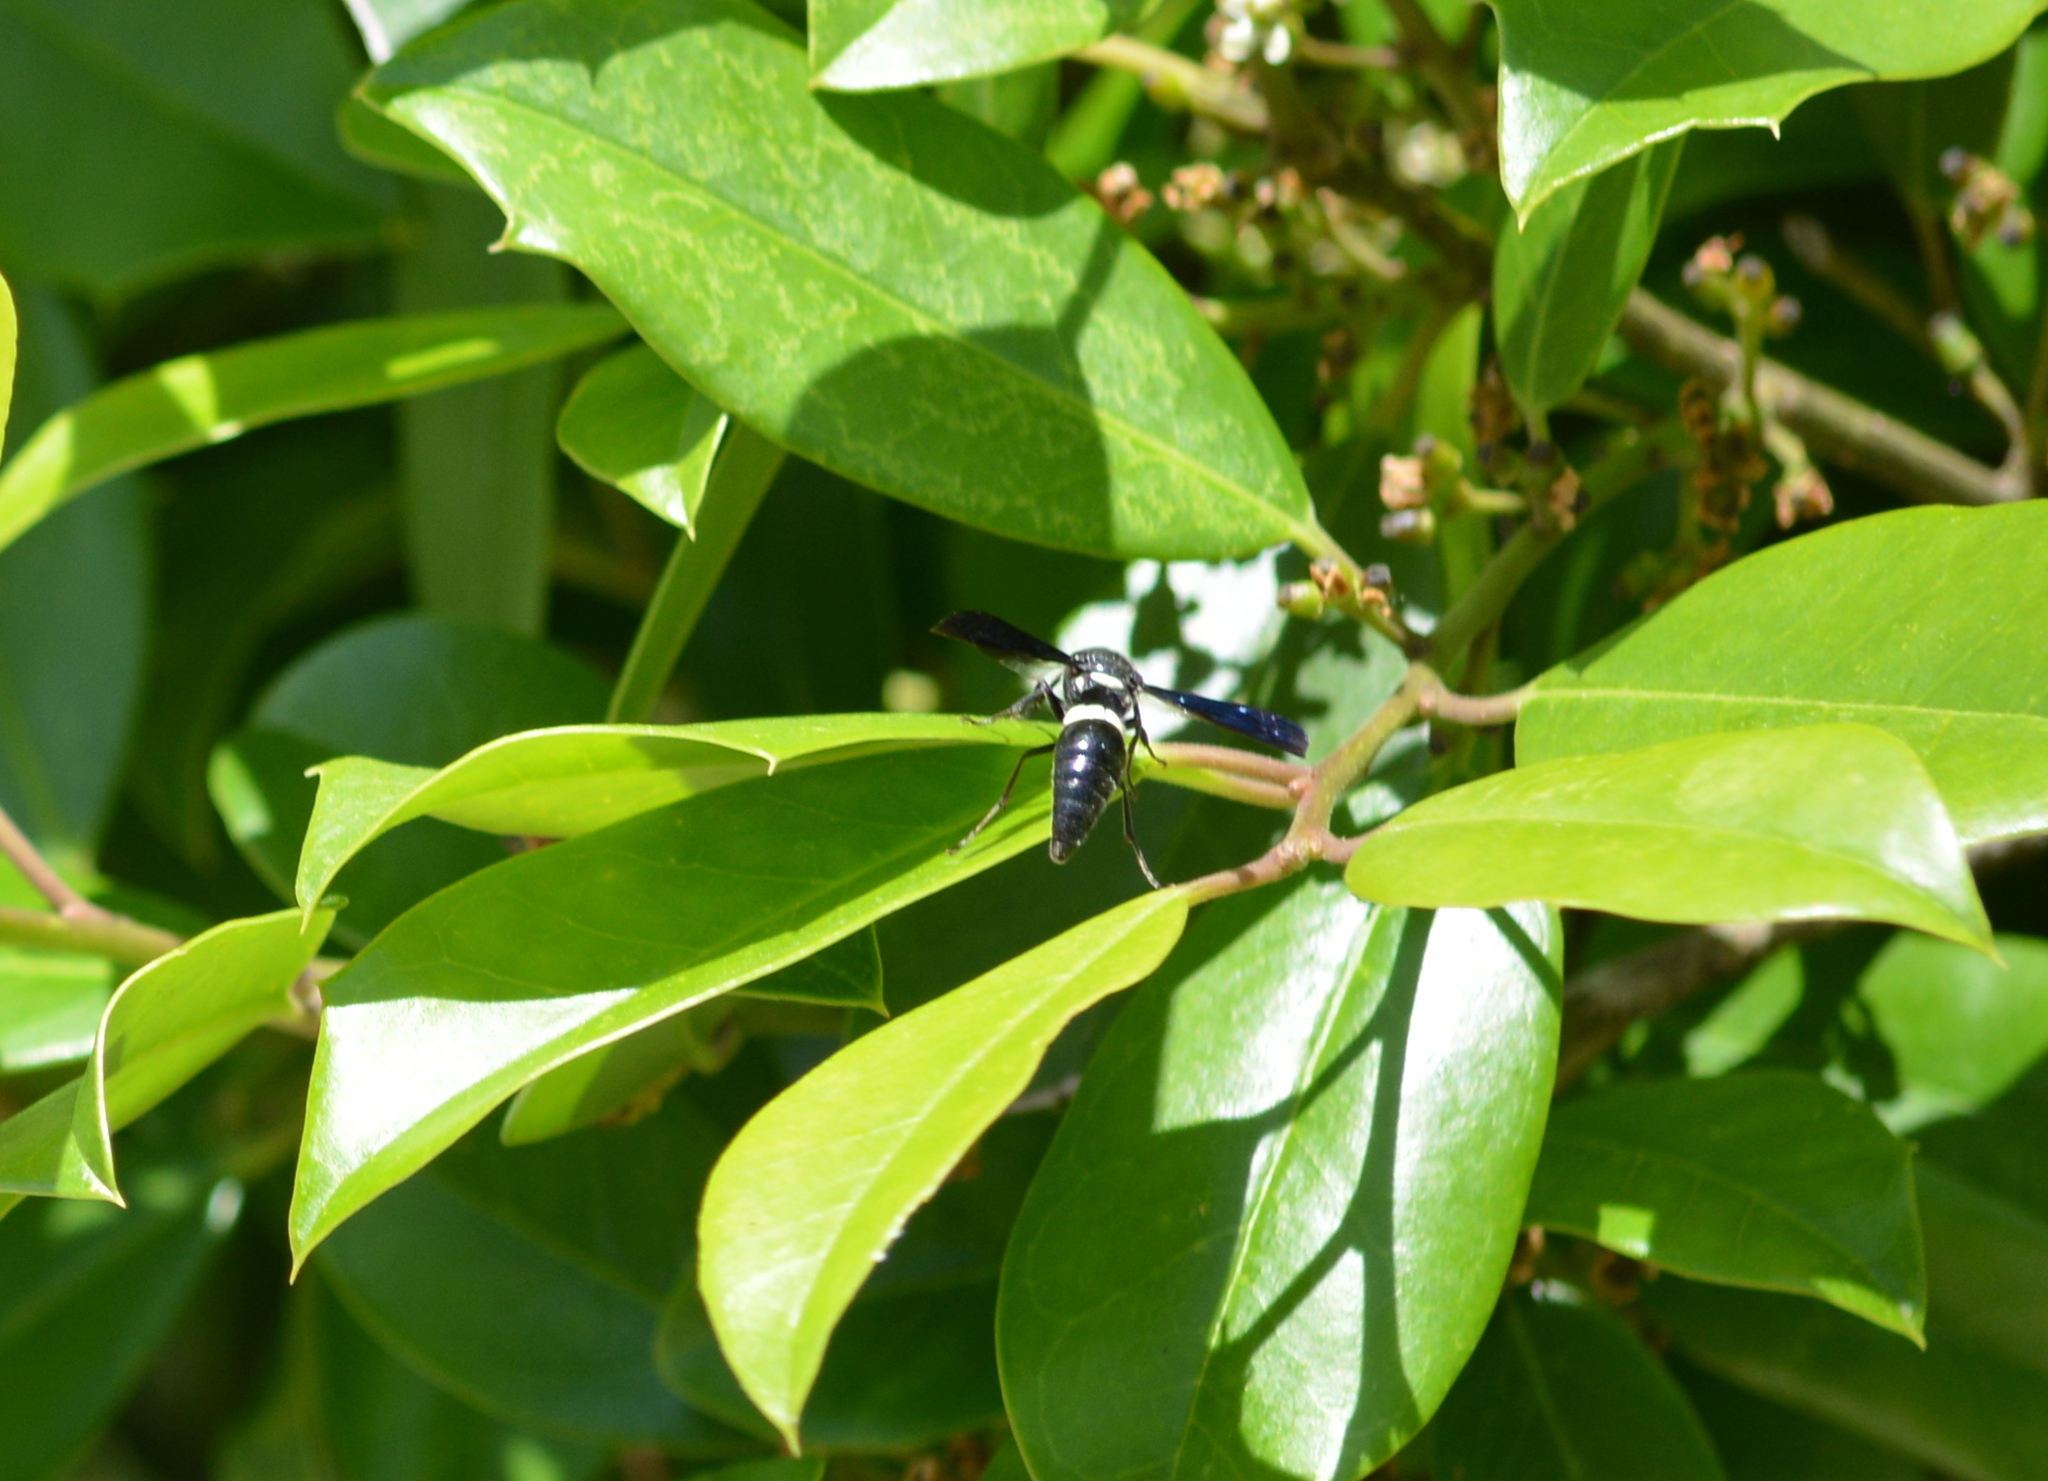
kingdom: Animalia
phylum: Arthropoda
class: Insecta
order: Hymenoptera
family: Eumenidae
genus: Monobia
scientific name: Monobia quadridens
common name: Four-toothed mason wasp
